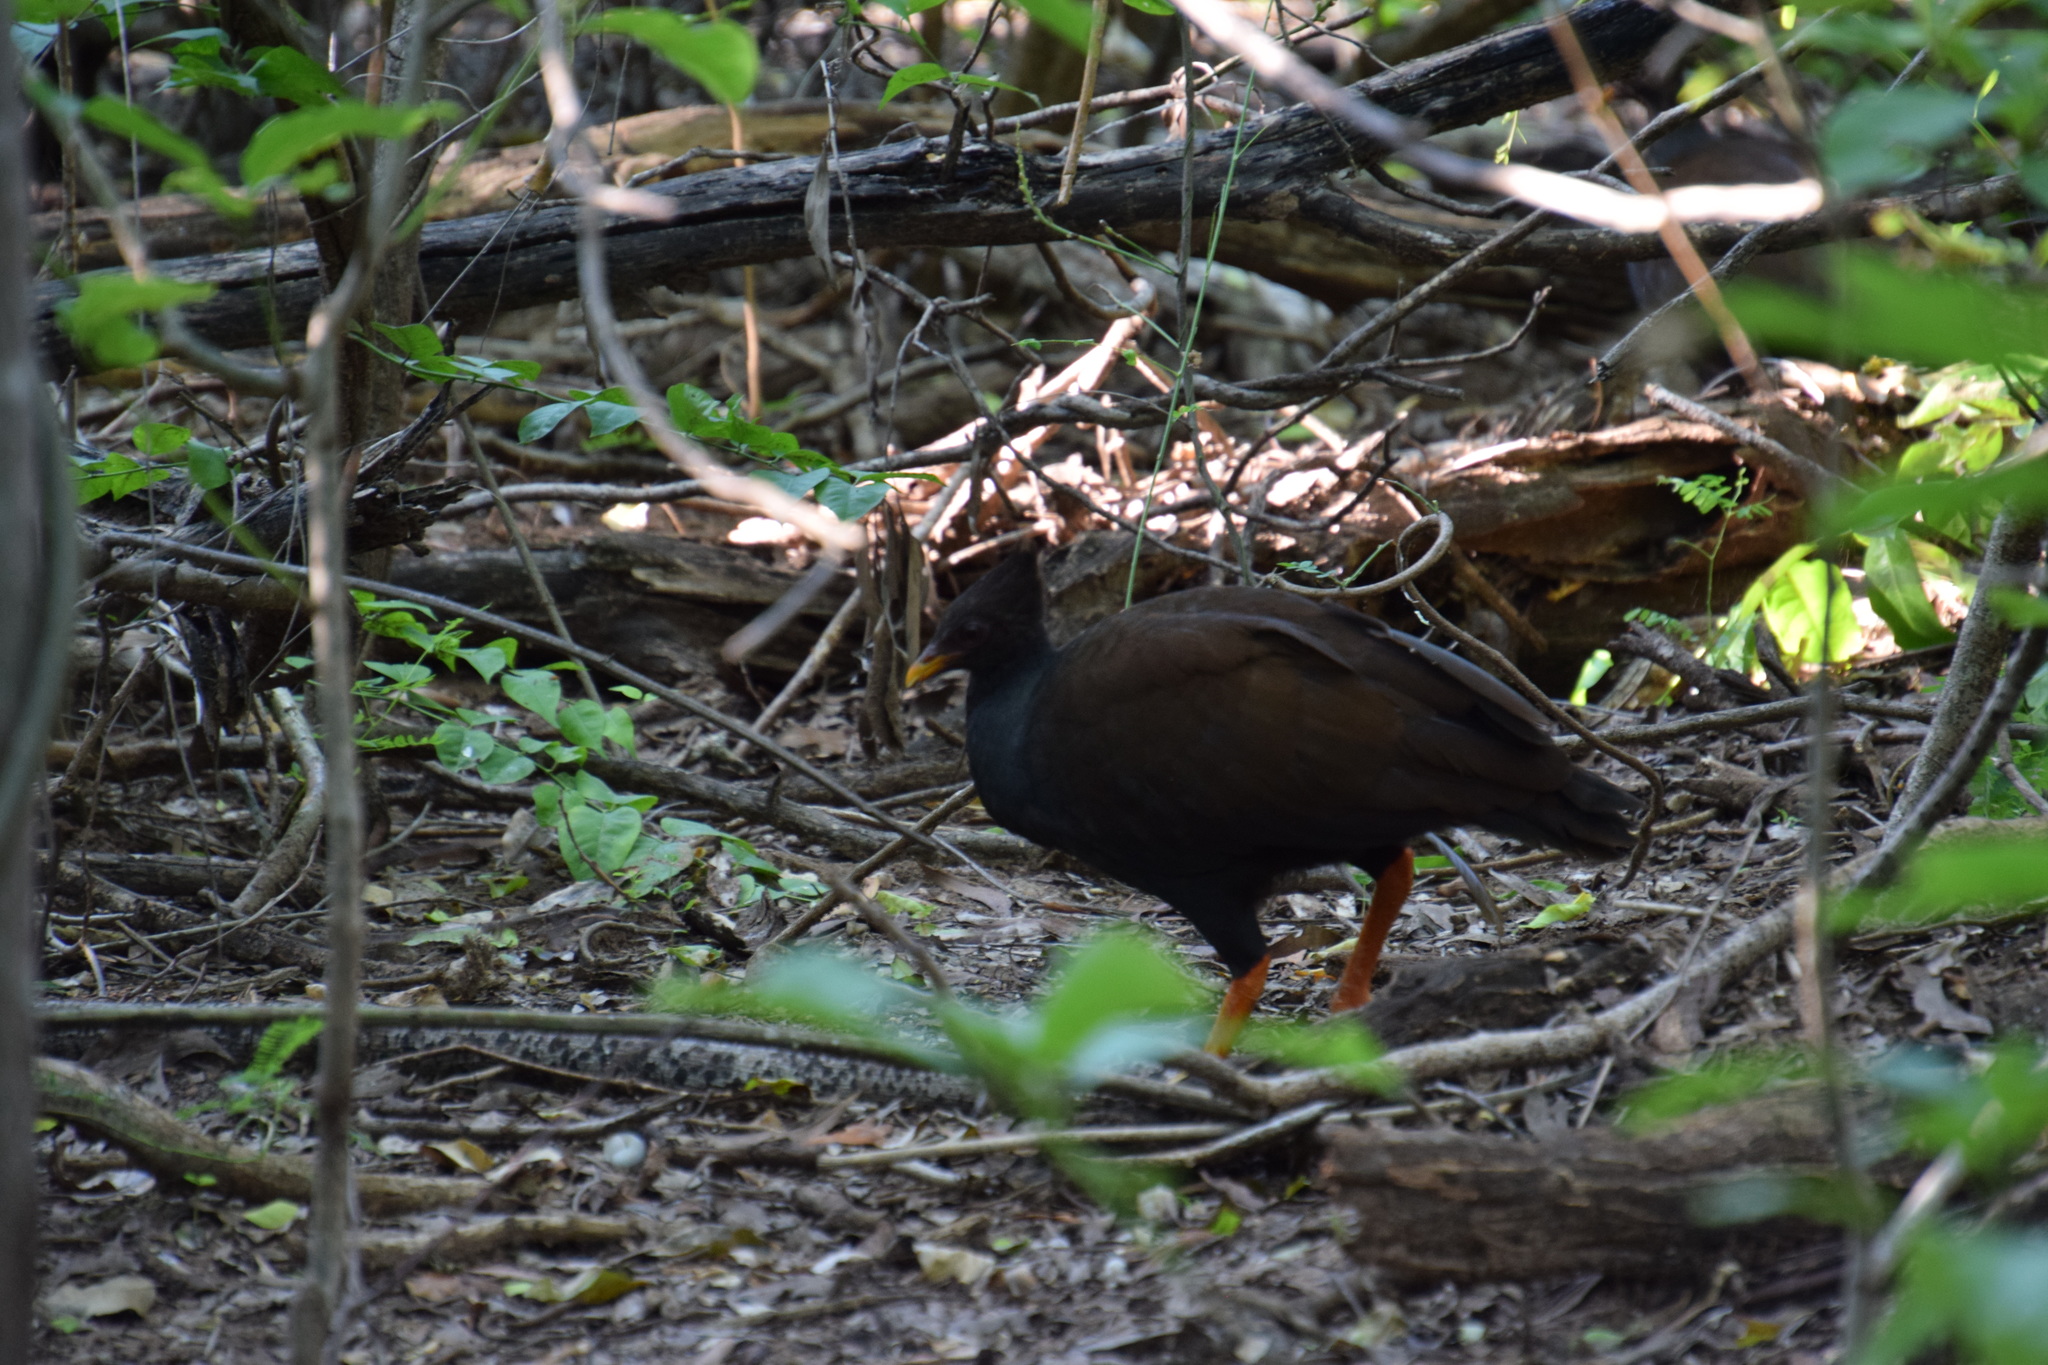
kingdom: Animalia
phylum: Chordata
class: Aves
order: Galliformes
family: Megapodiidae
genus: Megapodius
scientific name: Megapodius reinwardt
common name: Orange-footed scrubfowl
